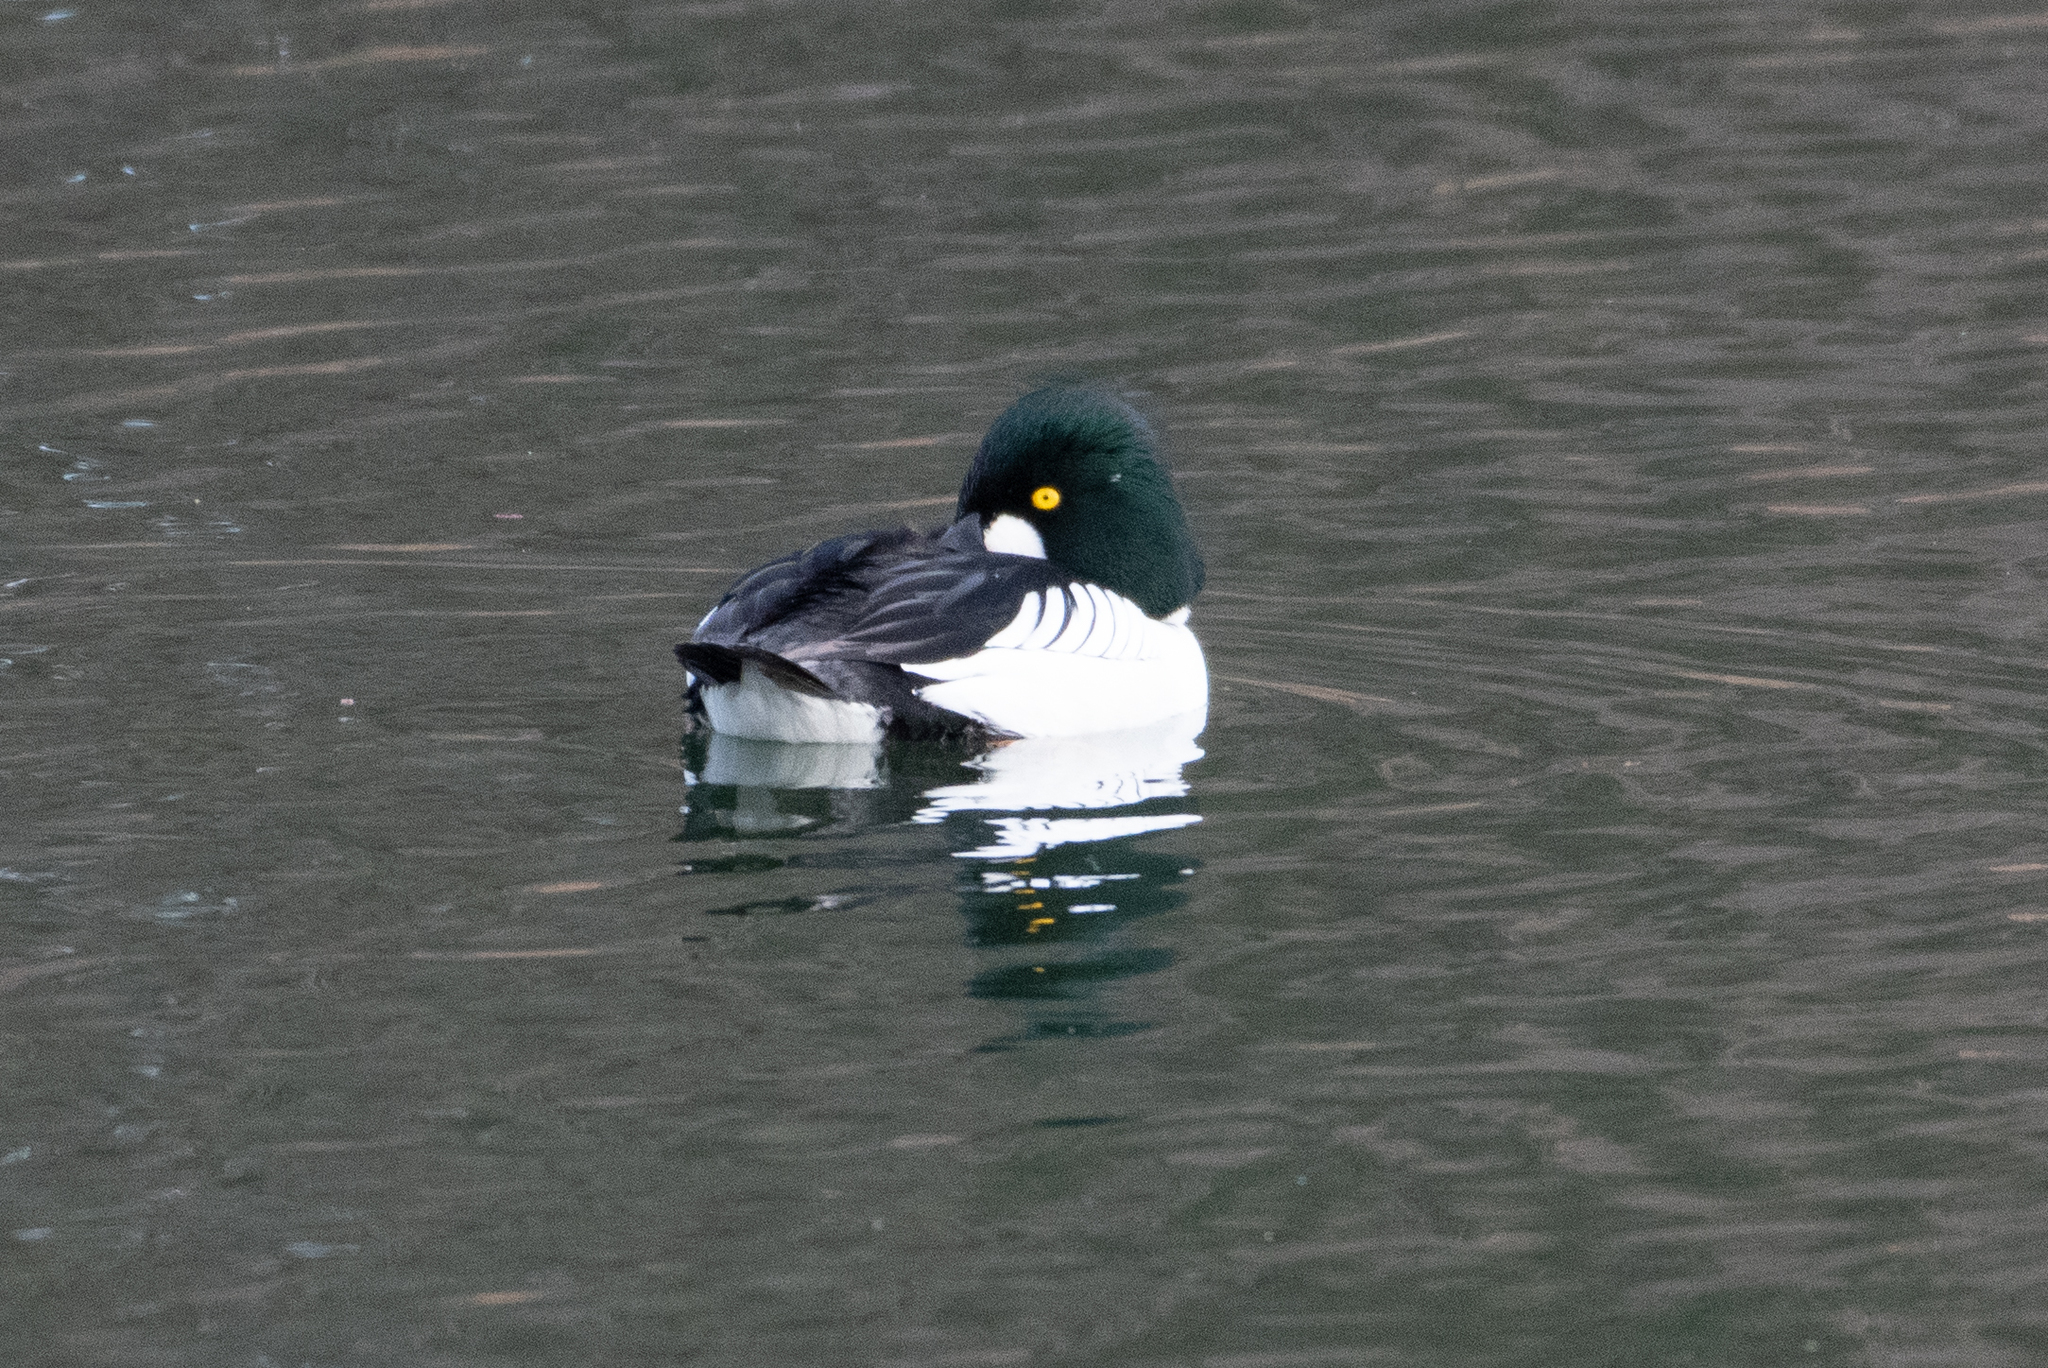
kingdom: Animalia
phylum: Chordata
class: Aves
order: Anseriformes
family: Anatidae
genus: Bucephala
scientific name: Bucephala clangula
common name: Common goldeneye
